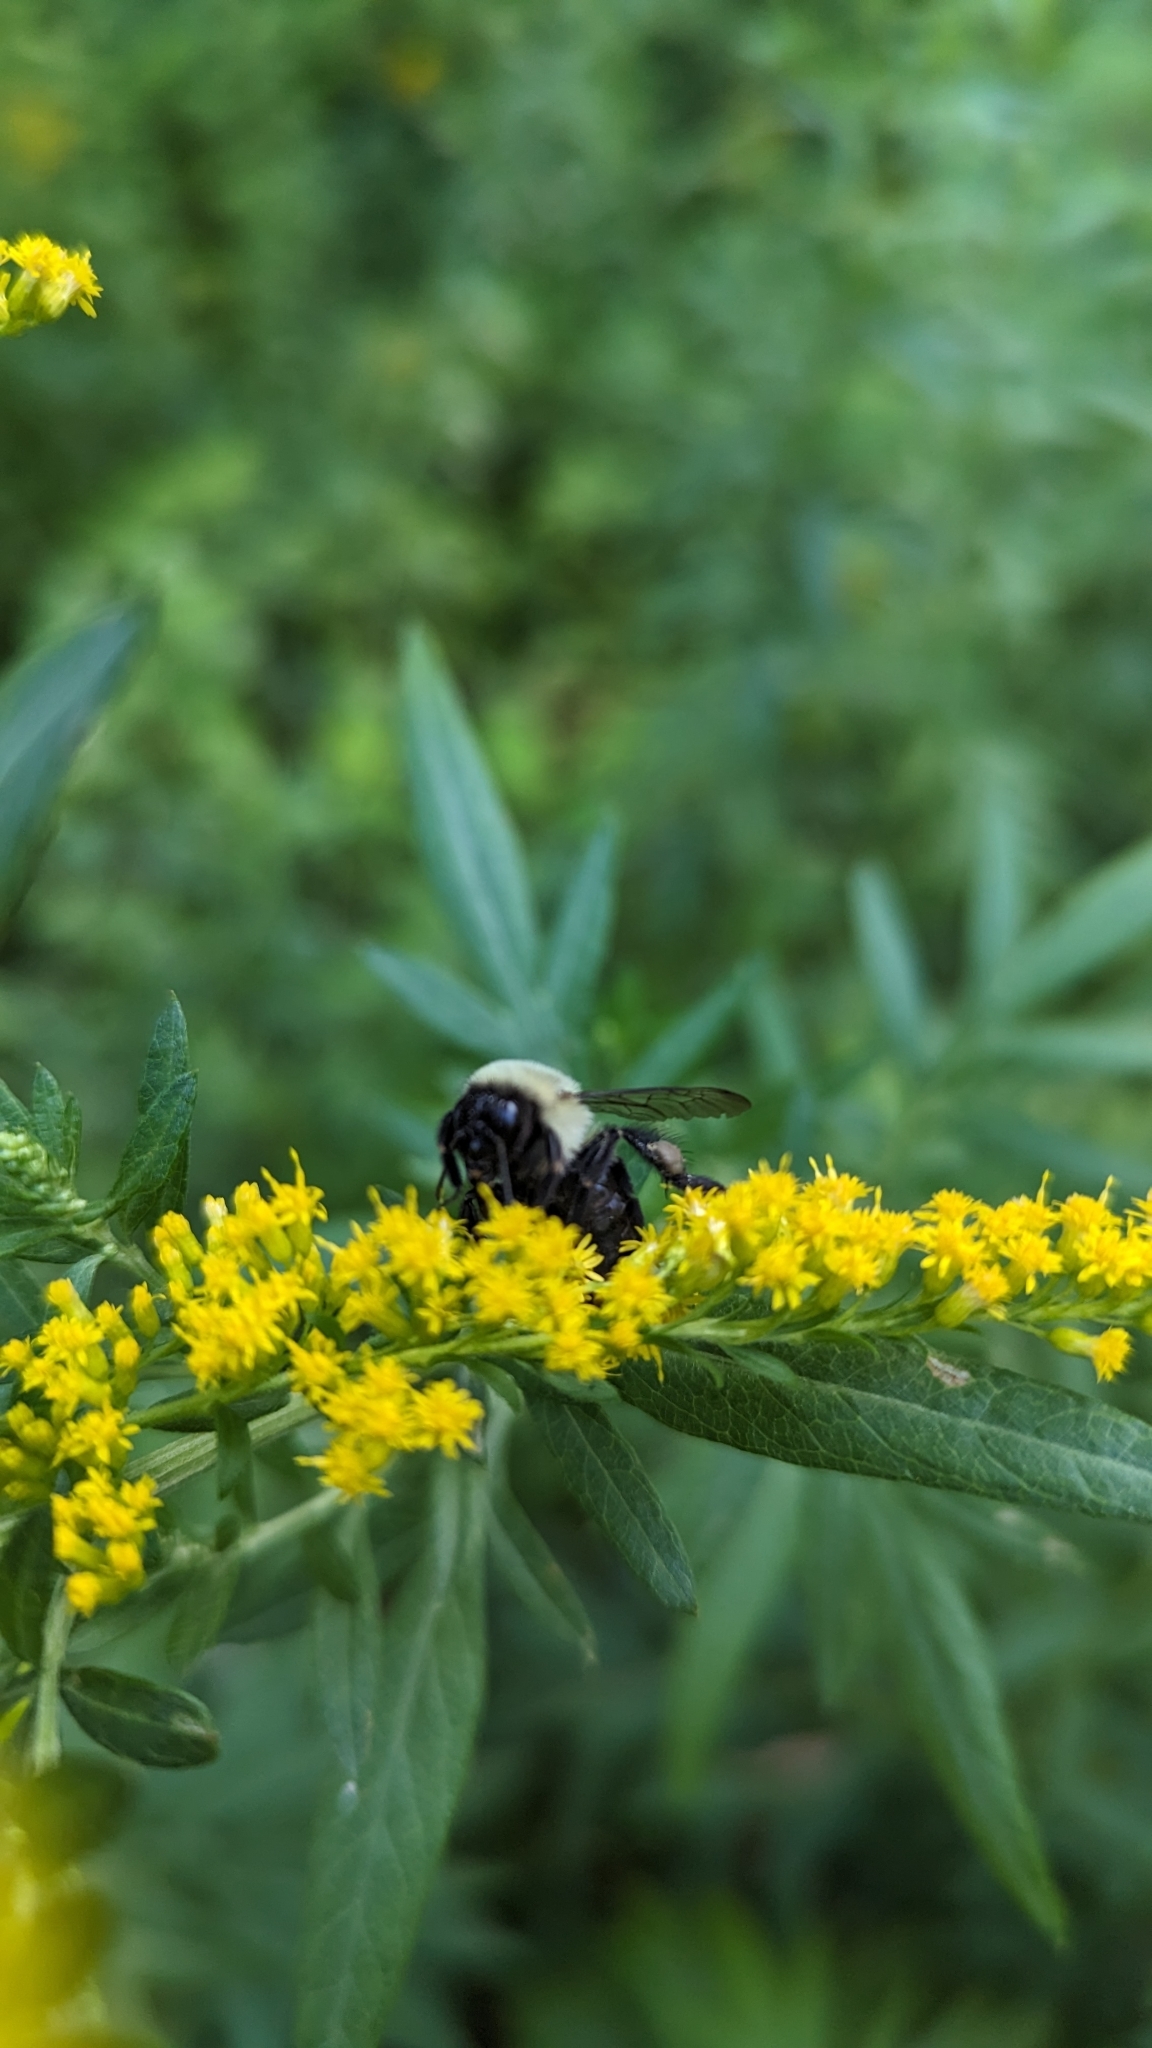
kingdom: Animalia
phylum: Arthropoda
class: Insecta
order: Hymenoptera
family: Apidae
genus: Bombus
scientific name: Bombus impatiens
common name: Common eastern bumble bee
